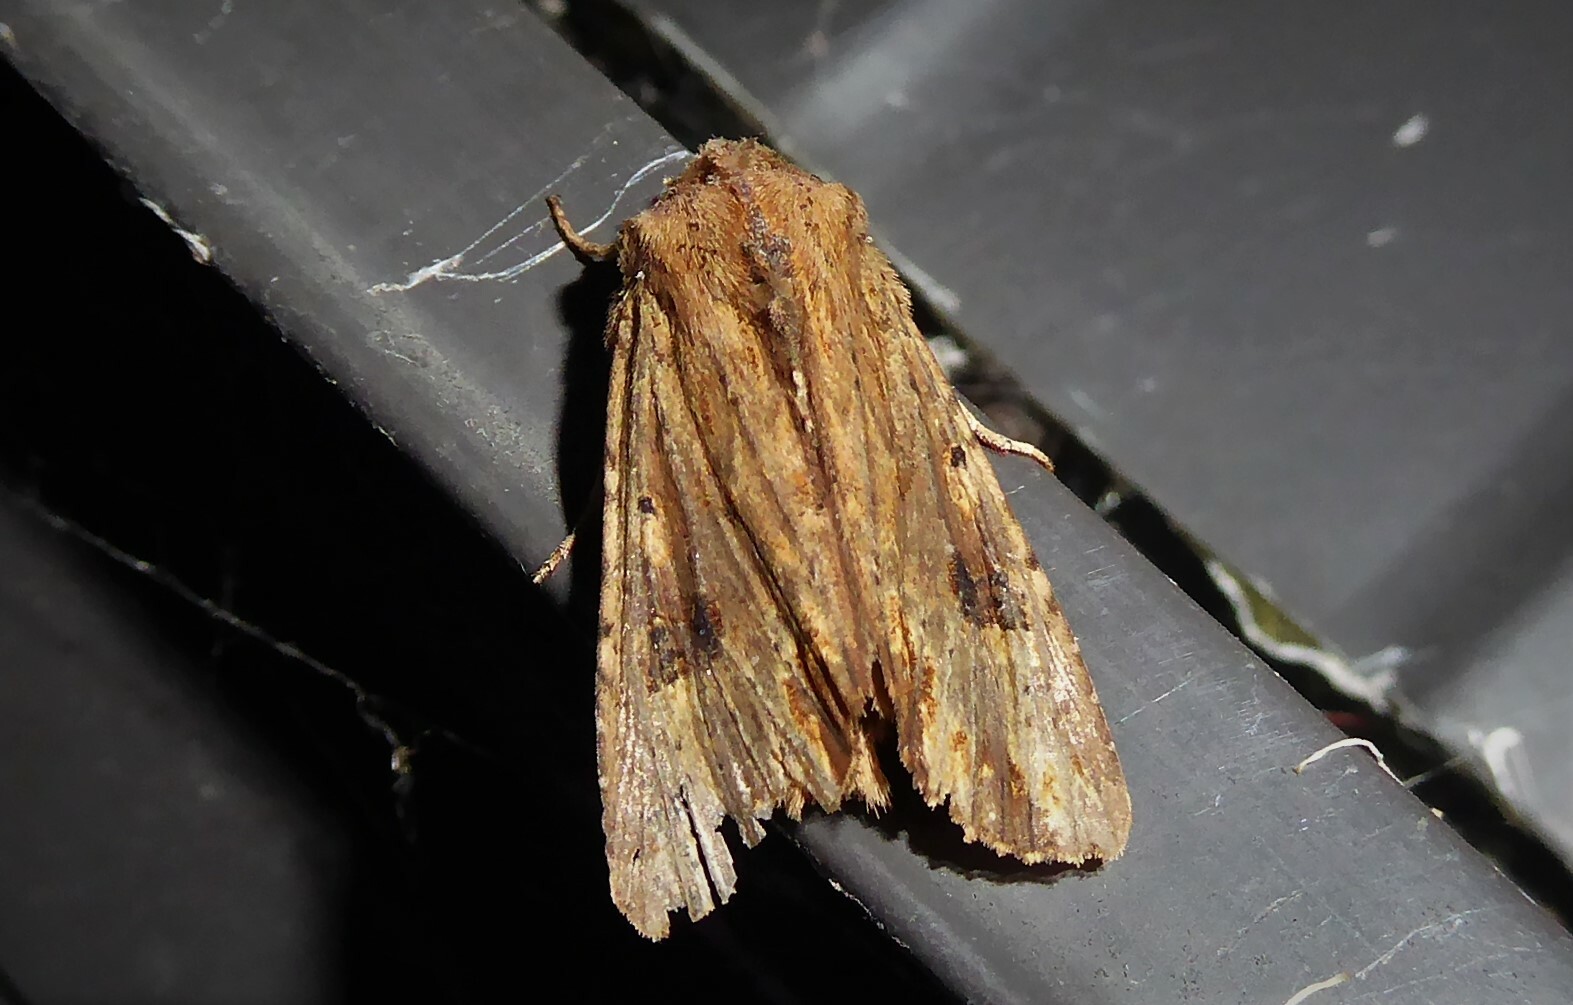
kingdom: Animalia
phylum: Arthropoda
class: Insecta
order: Lepidoptera
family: Noctuidae
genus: Ichneutica
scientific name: Ichneutica
